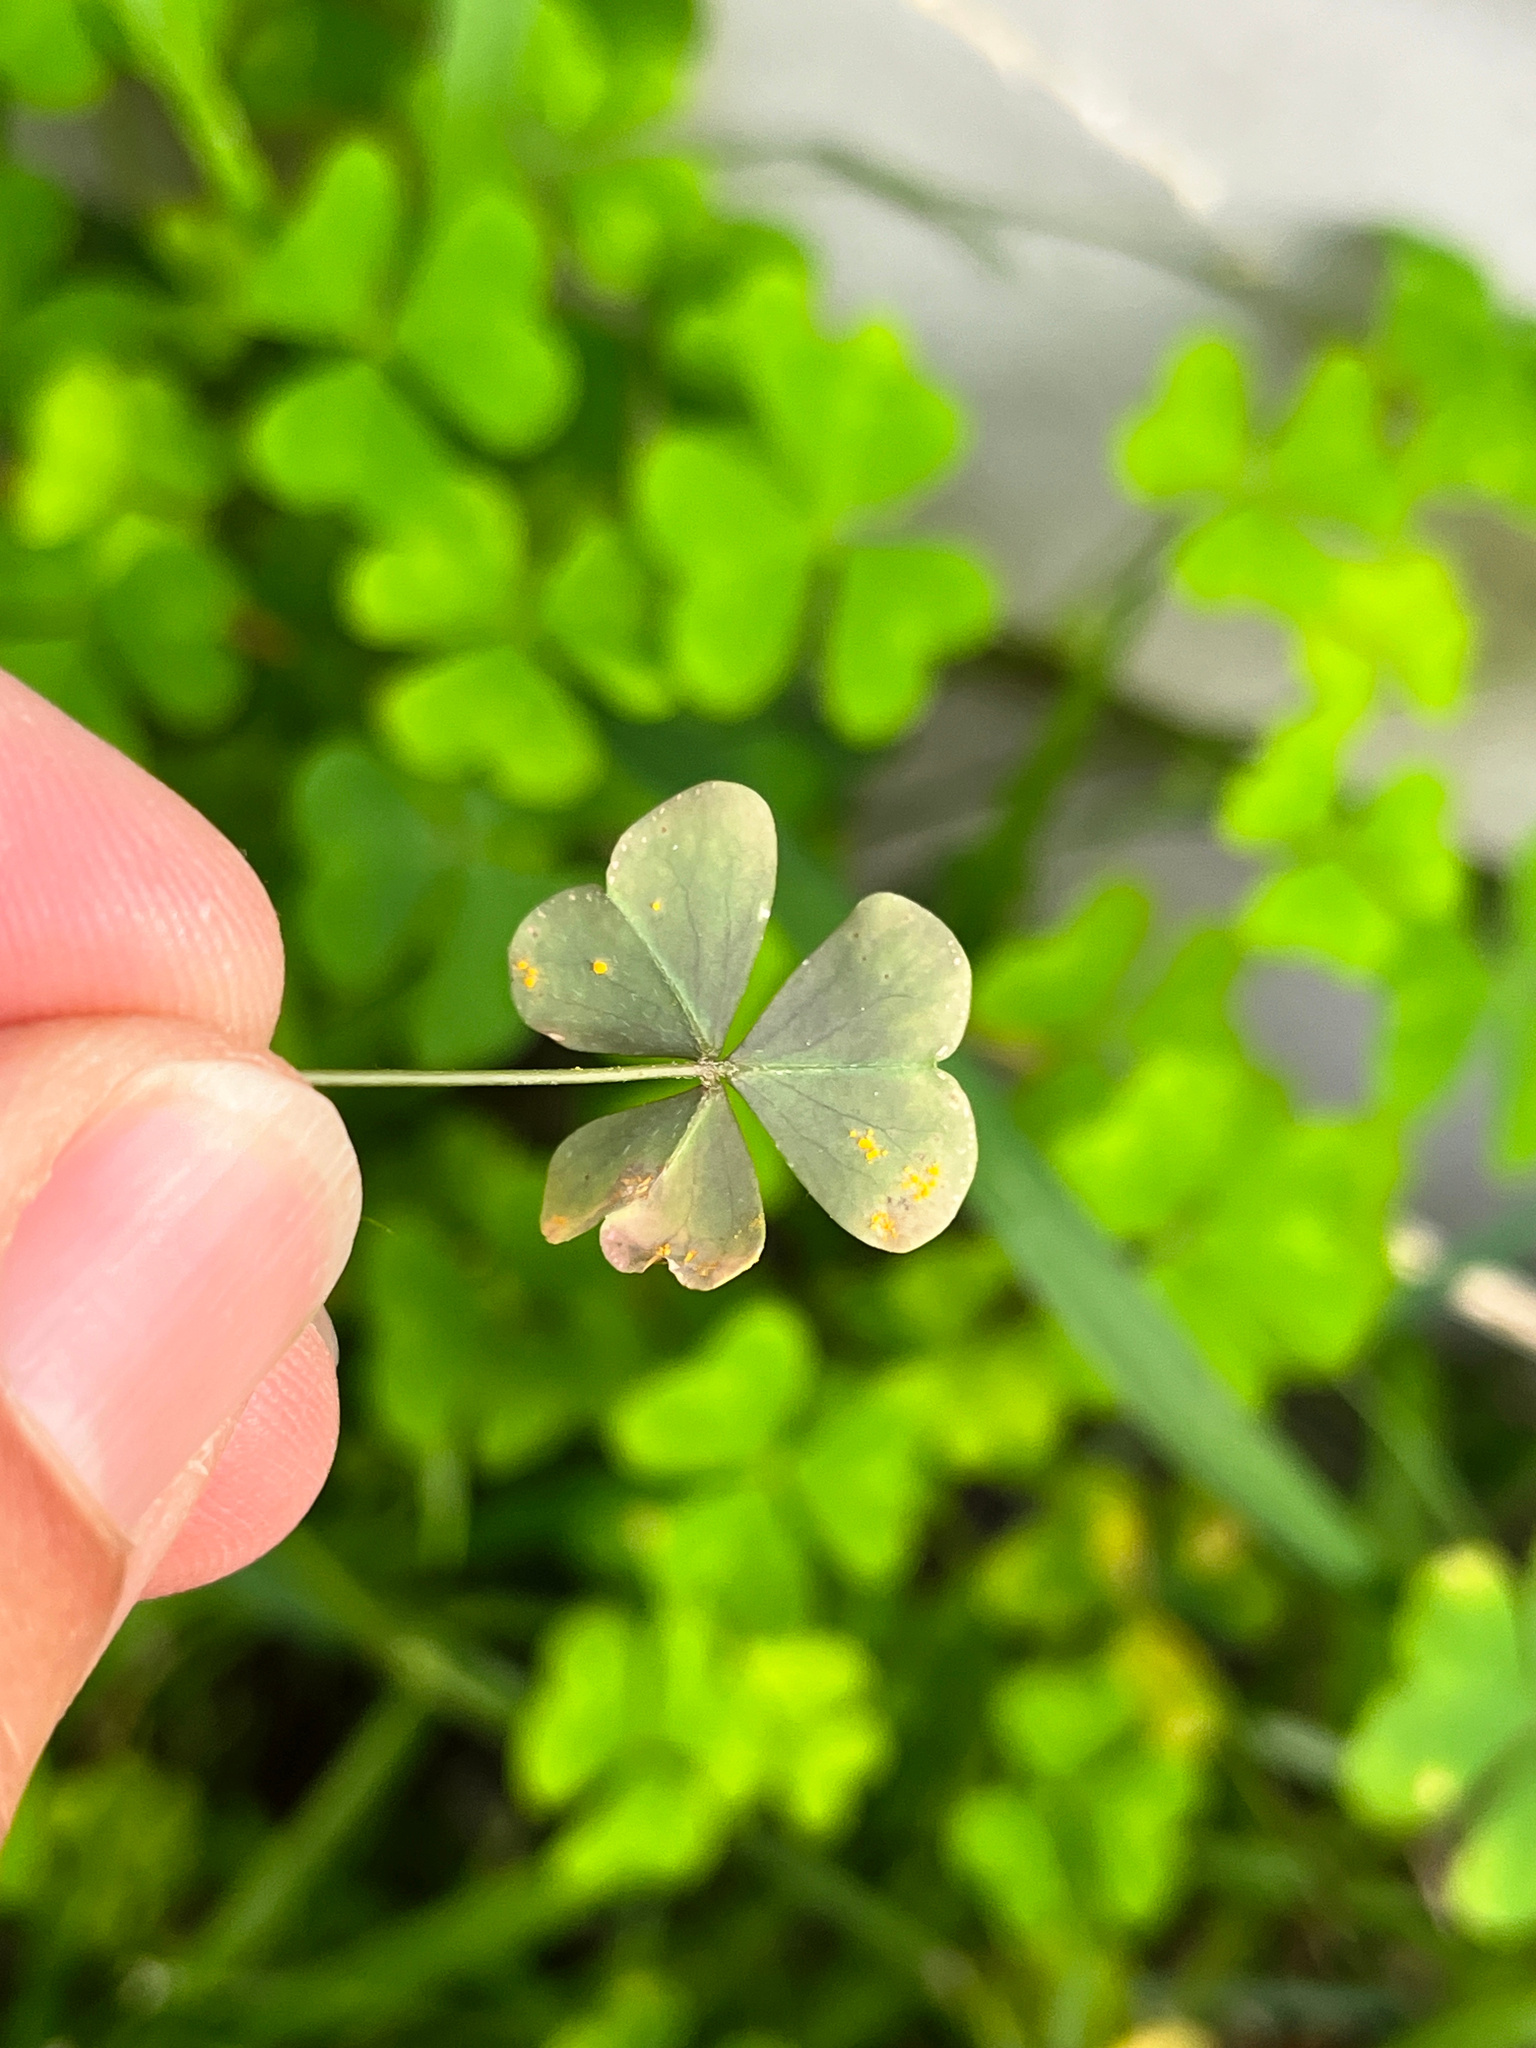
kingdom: Fungi
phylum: Basidiomycota
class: Pucciniomycetes
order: Pucciniales
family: Pucciniaceae
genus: Puccinia
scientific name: Puccinia oxalidis
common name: Oxalis rust
